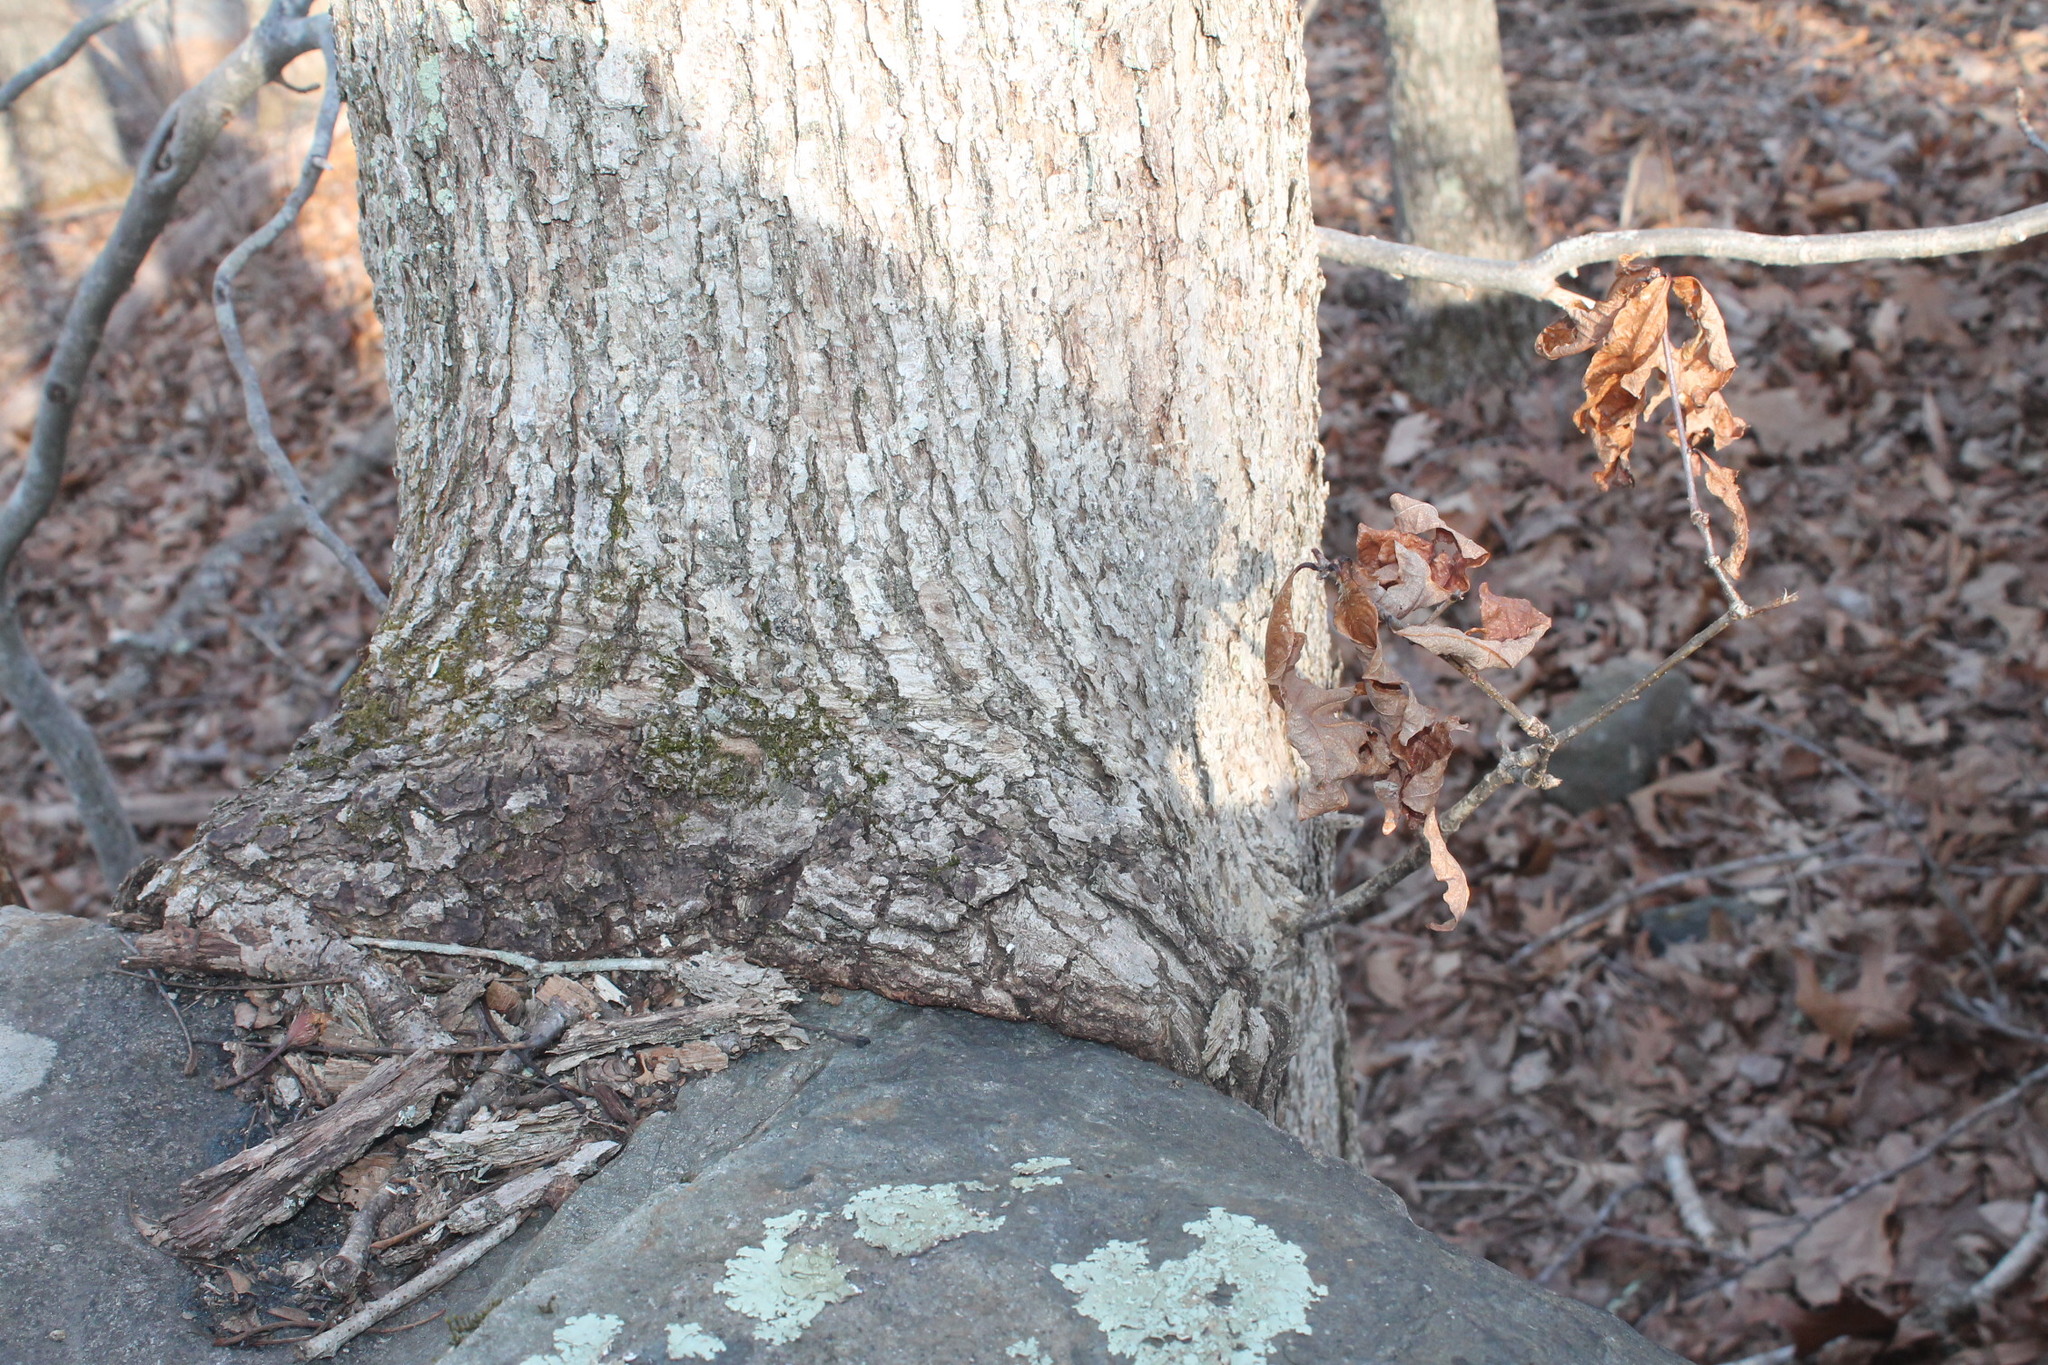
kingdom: Plantae
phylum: Tracheophyta
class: Magnoliopsida
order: Fagales
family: Fagaceae
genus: Quercus
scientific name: Quercus alba
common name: White oak
